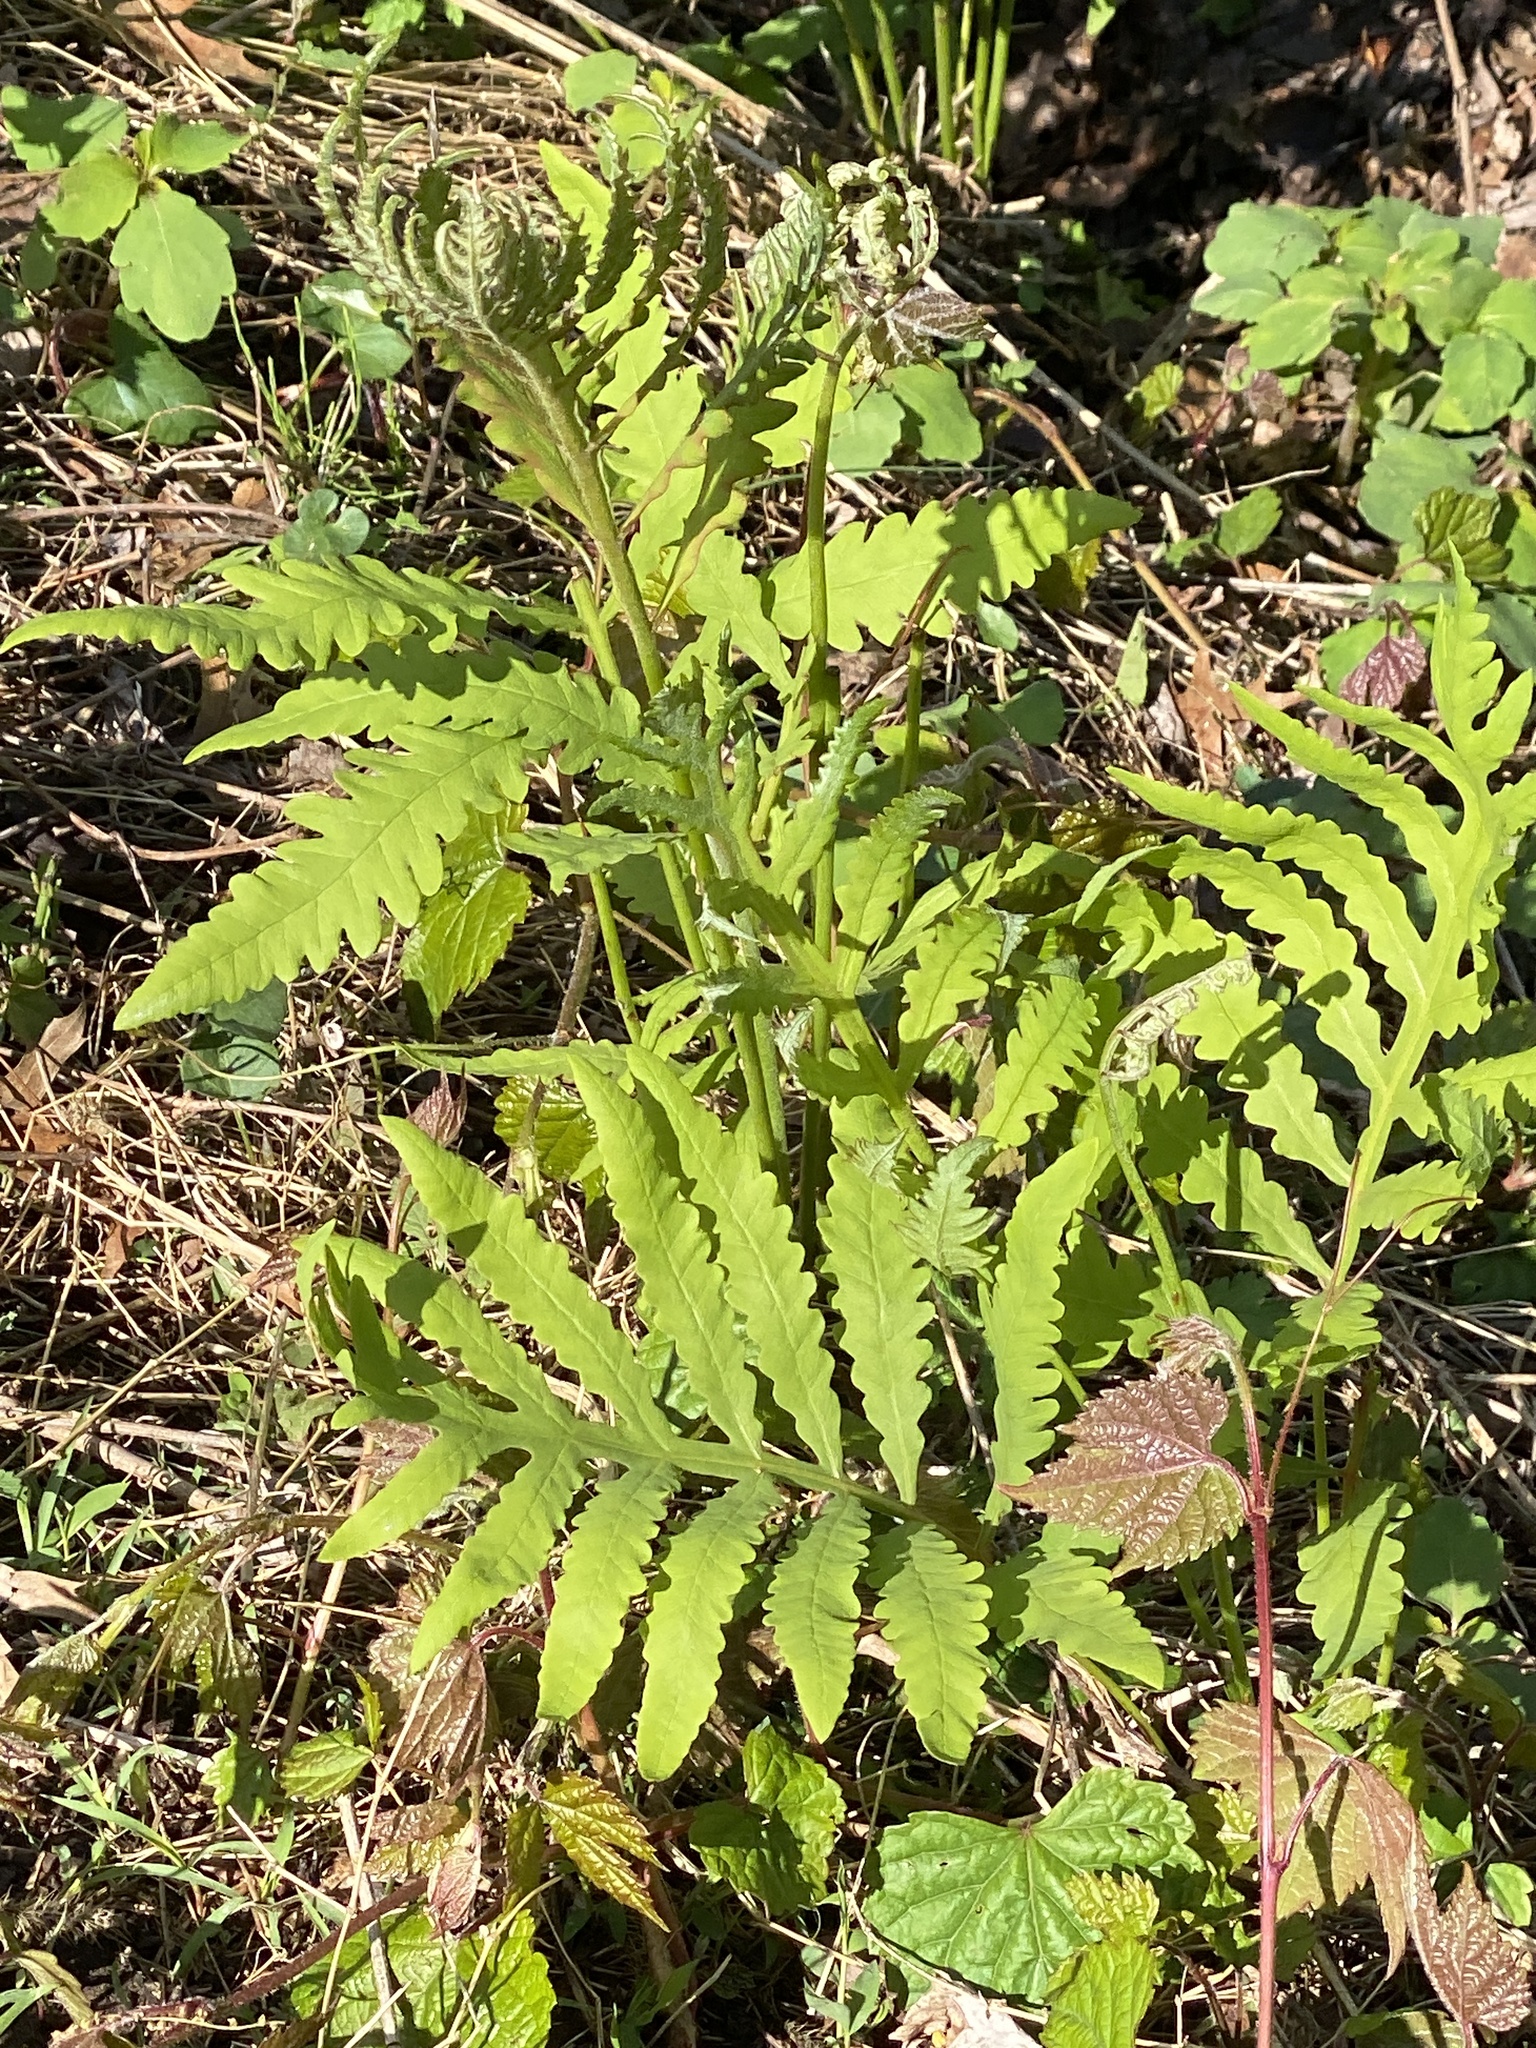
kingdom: Plantae
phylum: Tracheophyta
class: Polypodiopsida
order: Polypodiales
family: Onocleaceae
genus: Onoclea
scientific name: Onoclea sensibilis
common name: Sensitive fern
